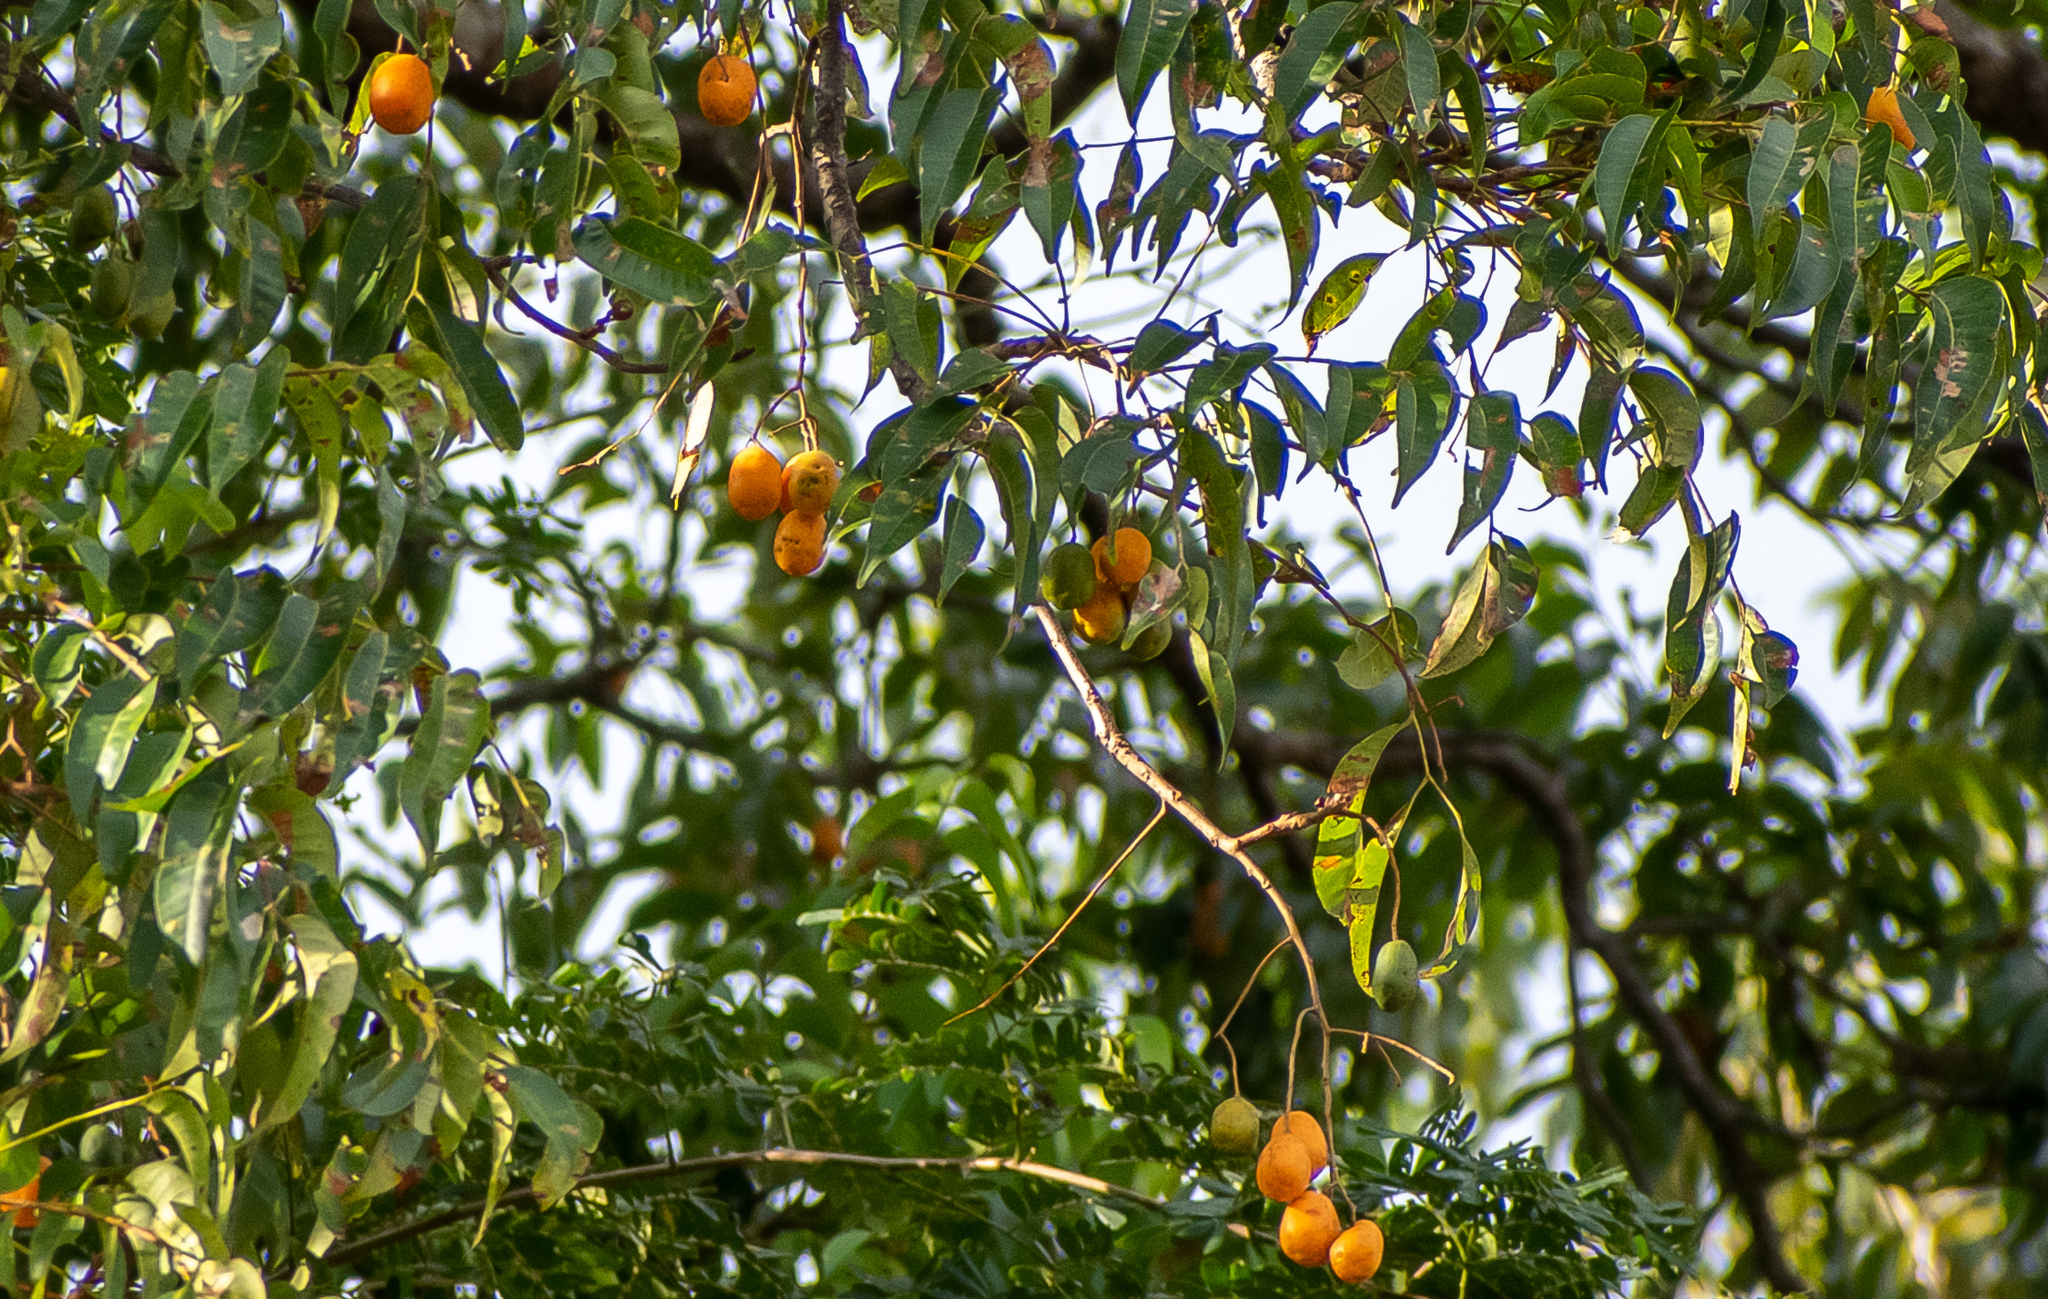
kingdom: Plantae
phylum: Tracheophyta
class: Magnoliopsida
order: Sapindales
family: Anacardiaceae
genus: Spondias
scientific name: Spondias mombin
